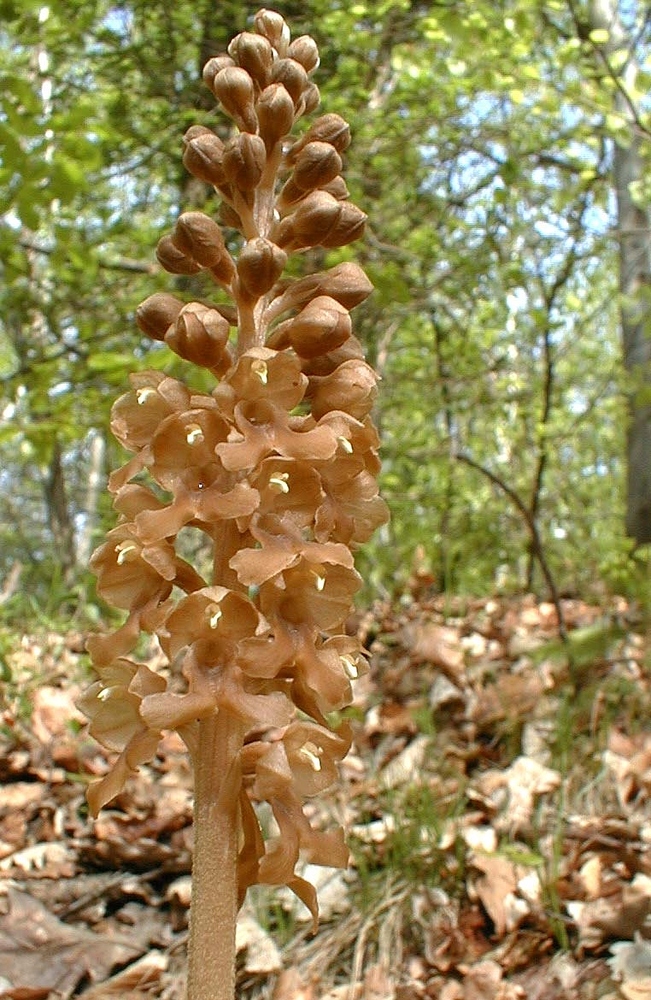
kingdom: Plantae
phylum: Tracheophyta
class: Liliopsida
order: Asparagales
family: Orchidaceae
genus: Neottia
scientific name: Neottia nidus-avis
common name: Bird's-nest orchid
